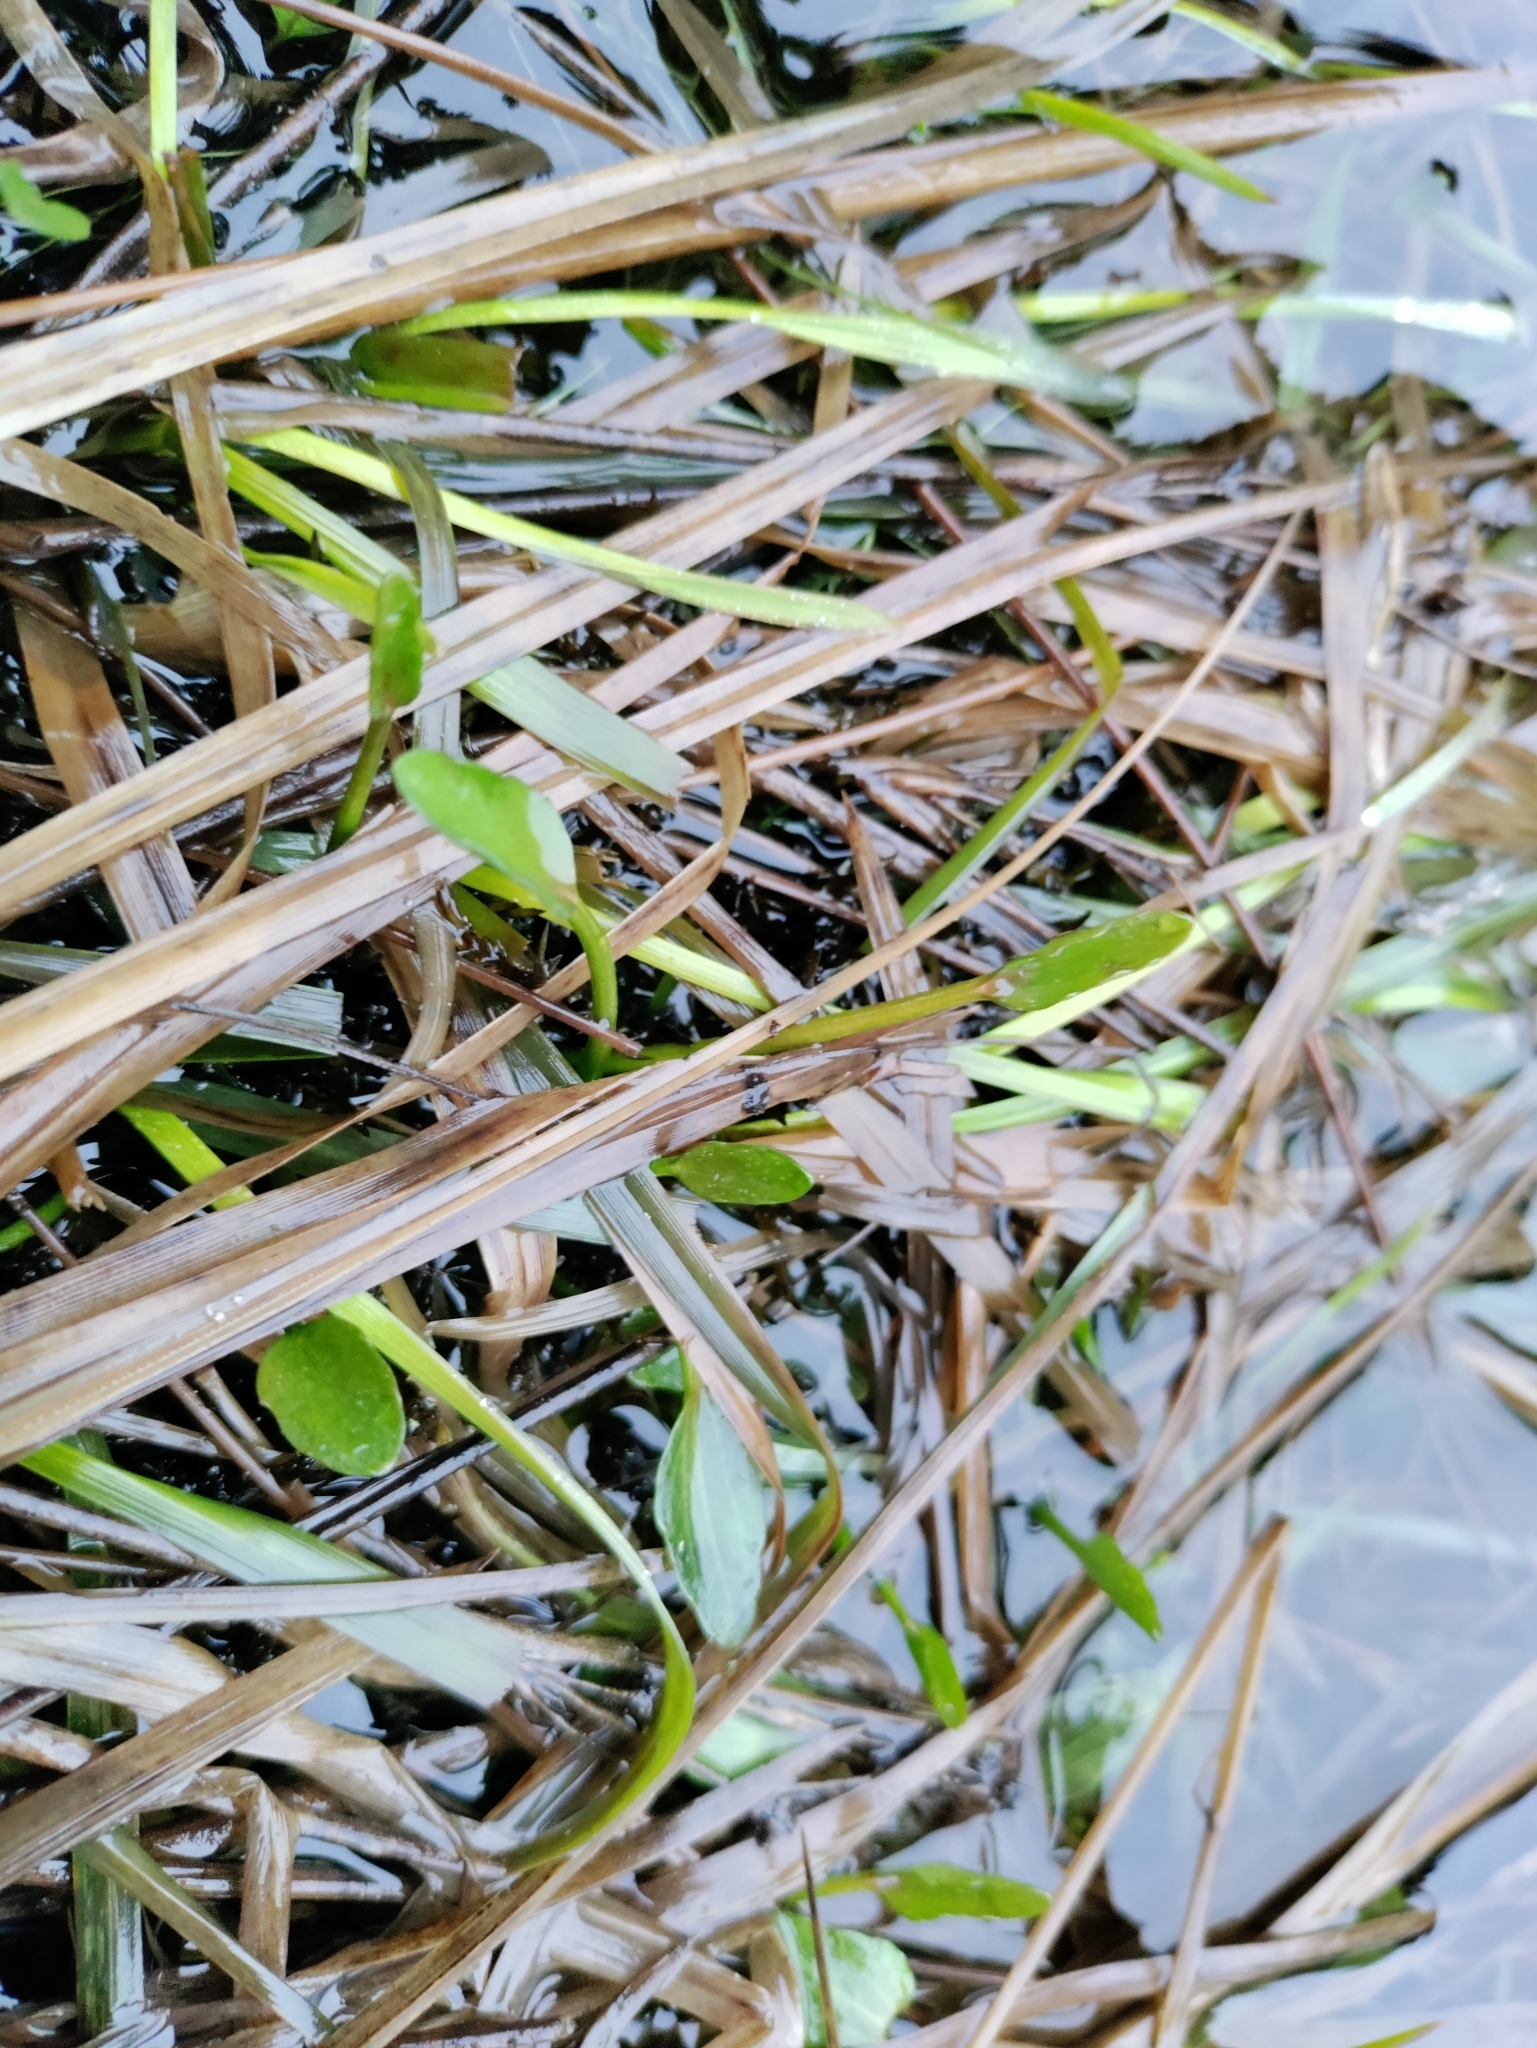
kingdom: Plantae
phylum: Tracheophyta
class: Magnoliopsida
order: Ranunculales
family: Ranunculaceae
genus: Ranunculus
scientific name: Ranunculus flammula
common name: Lesser spearwort
